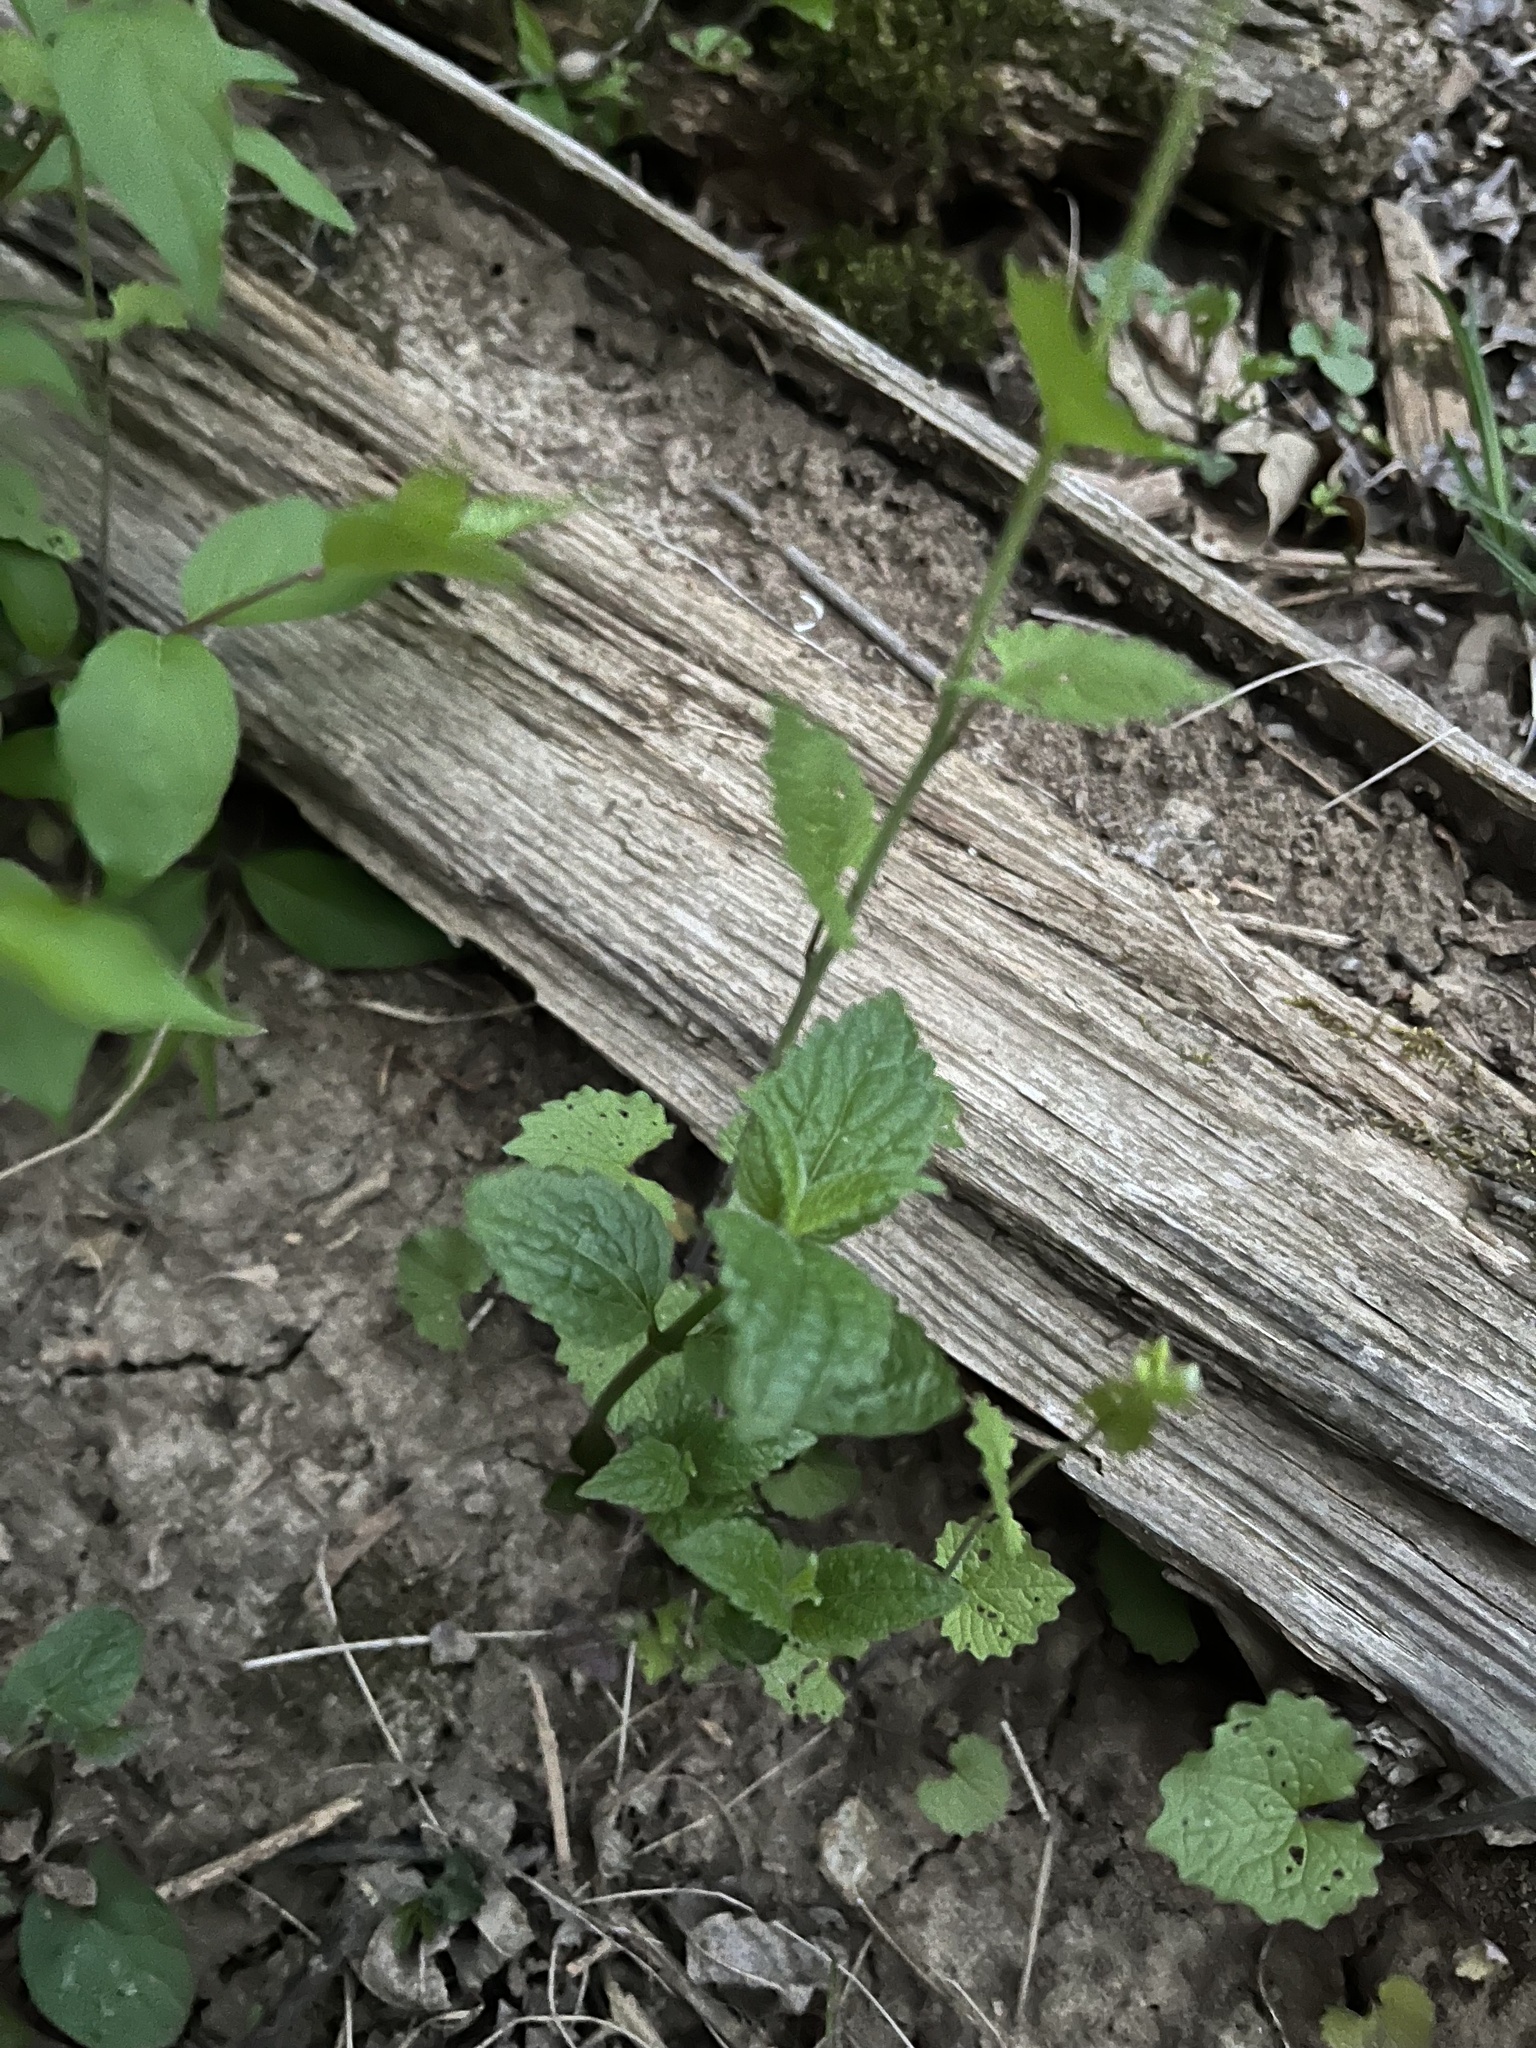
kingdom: Plantae
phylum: Tracheophyta
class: Magnoliopsida
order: Brassicales
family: Brassicaceae
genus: Alliaria
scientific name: Alliaria petiolata
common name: Garlic mustard
